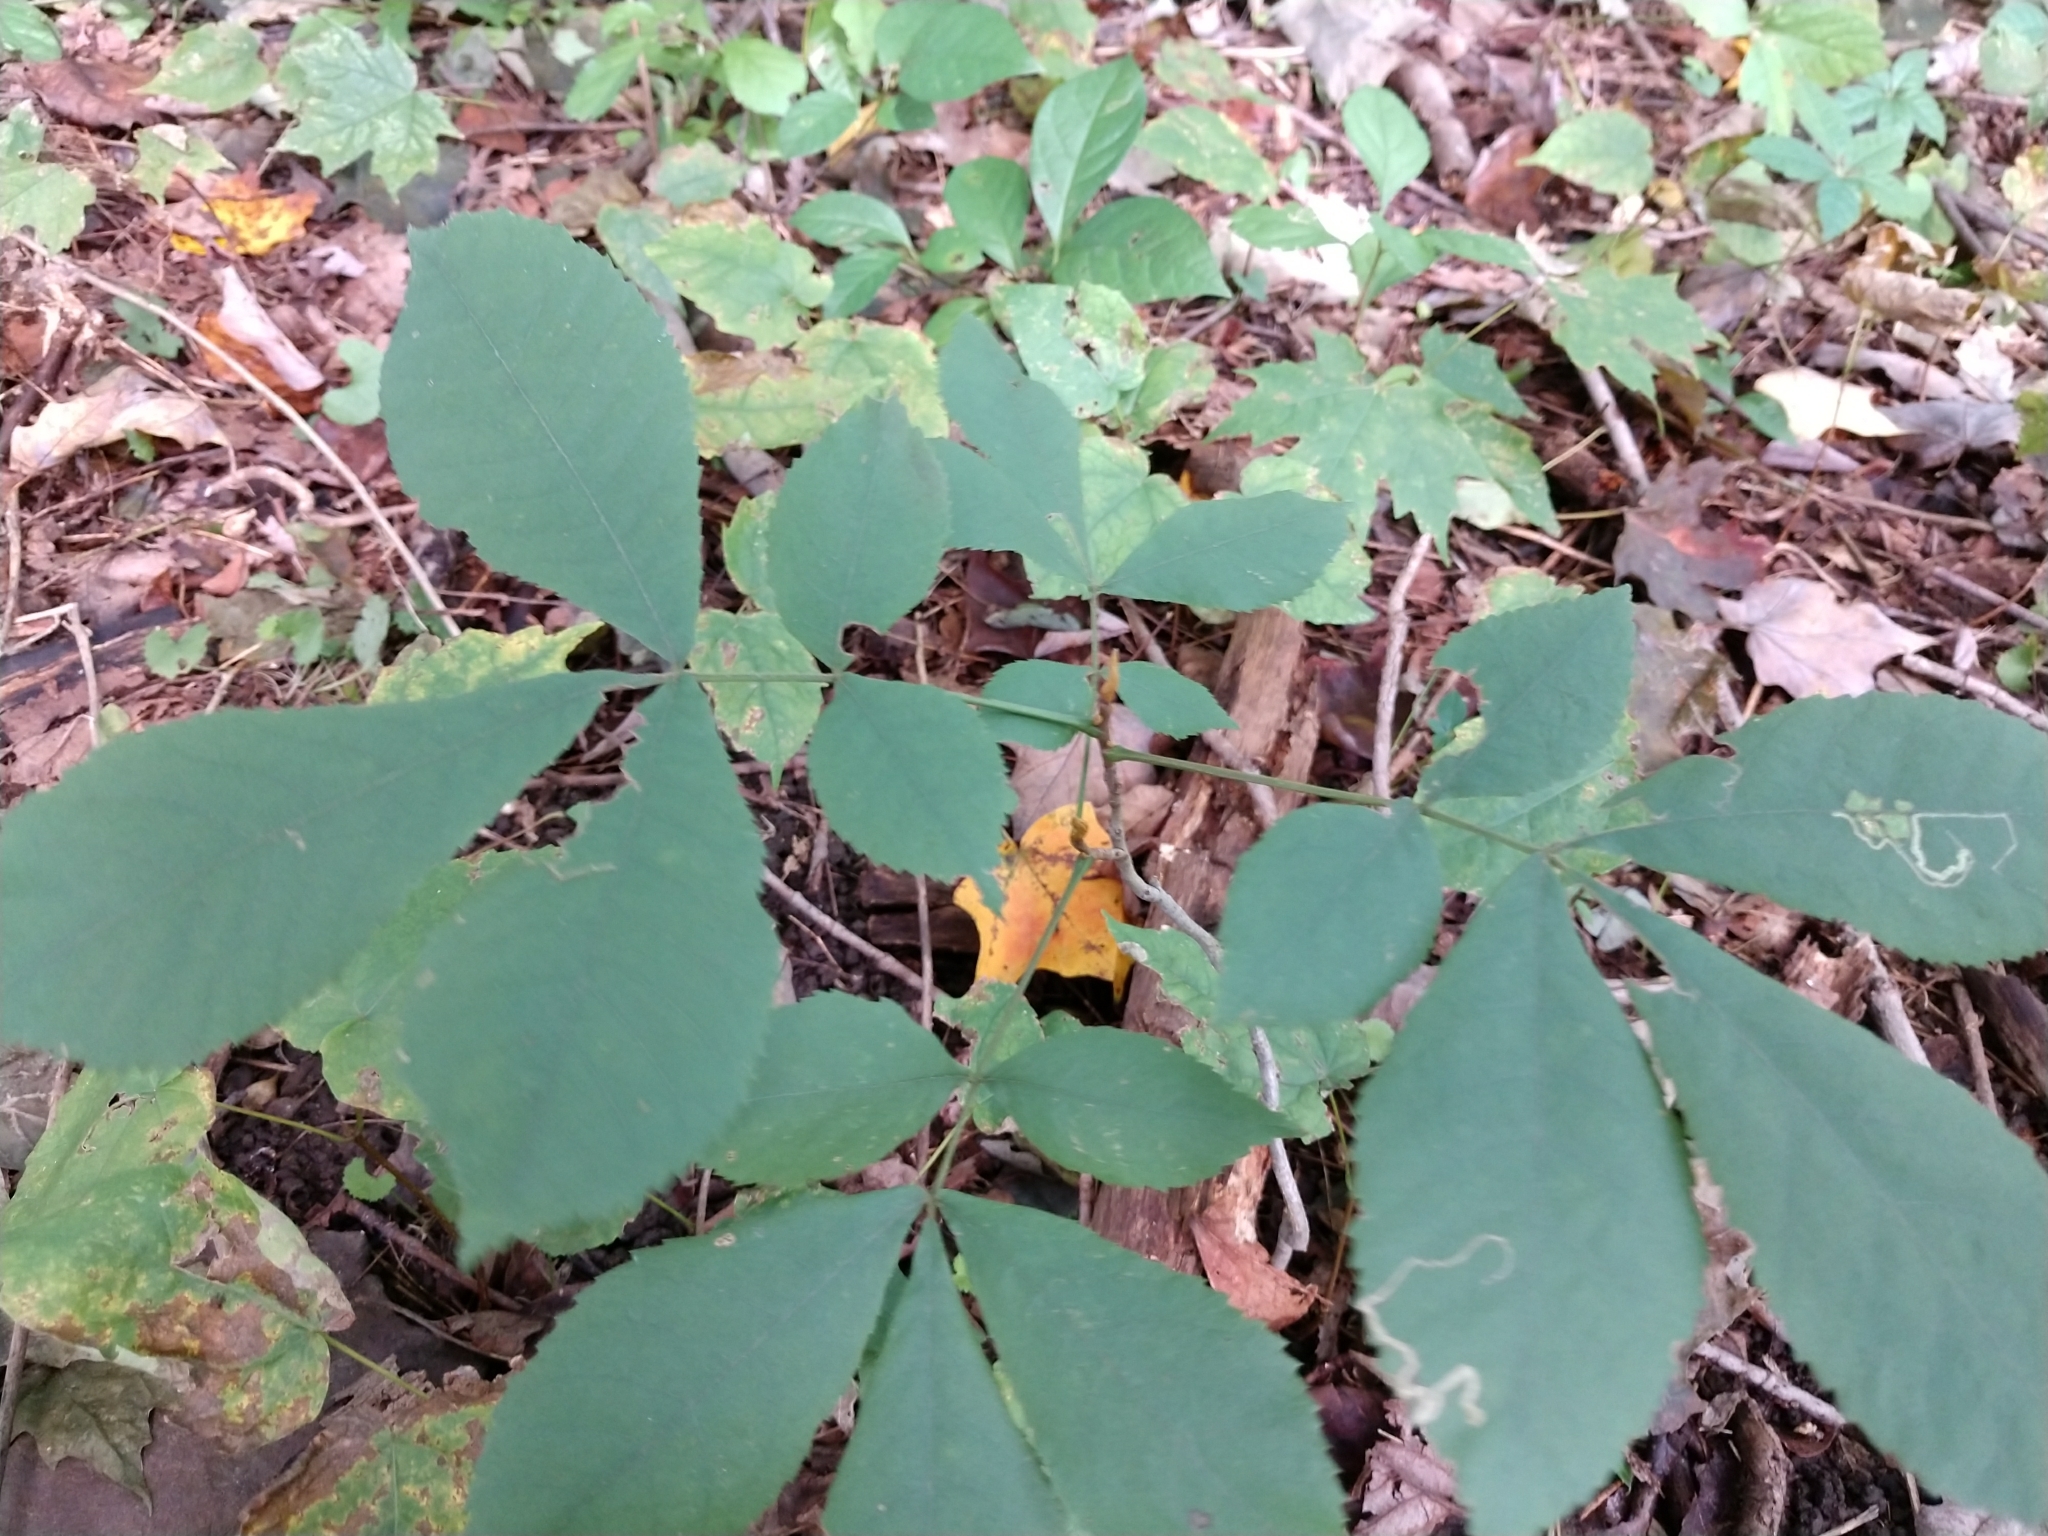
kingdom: Plantae
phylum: Tracheophyta
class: Magnoliopsida
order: Fagales
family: Juglandaceae
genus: Carya
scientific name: Carya cordiformis
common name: Bitternut hickory
